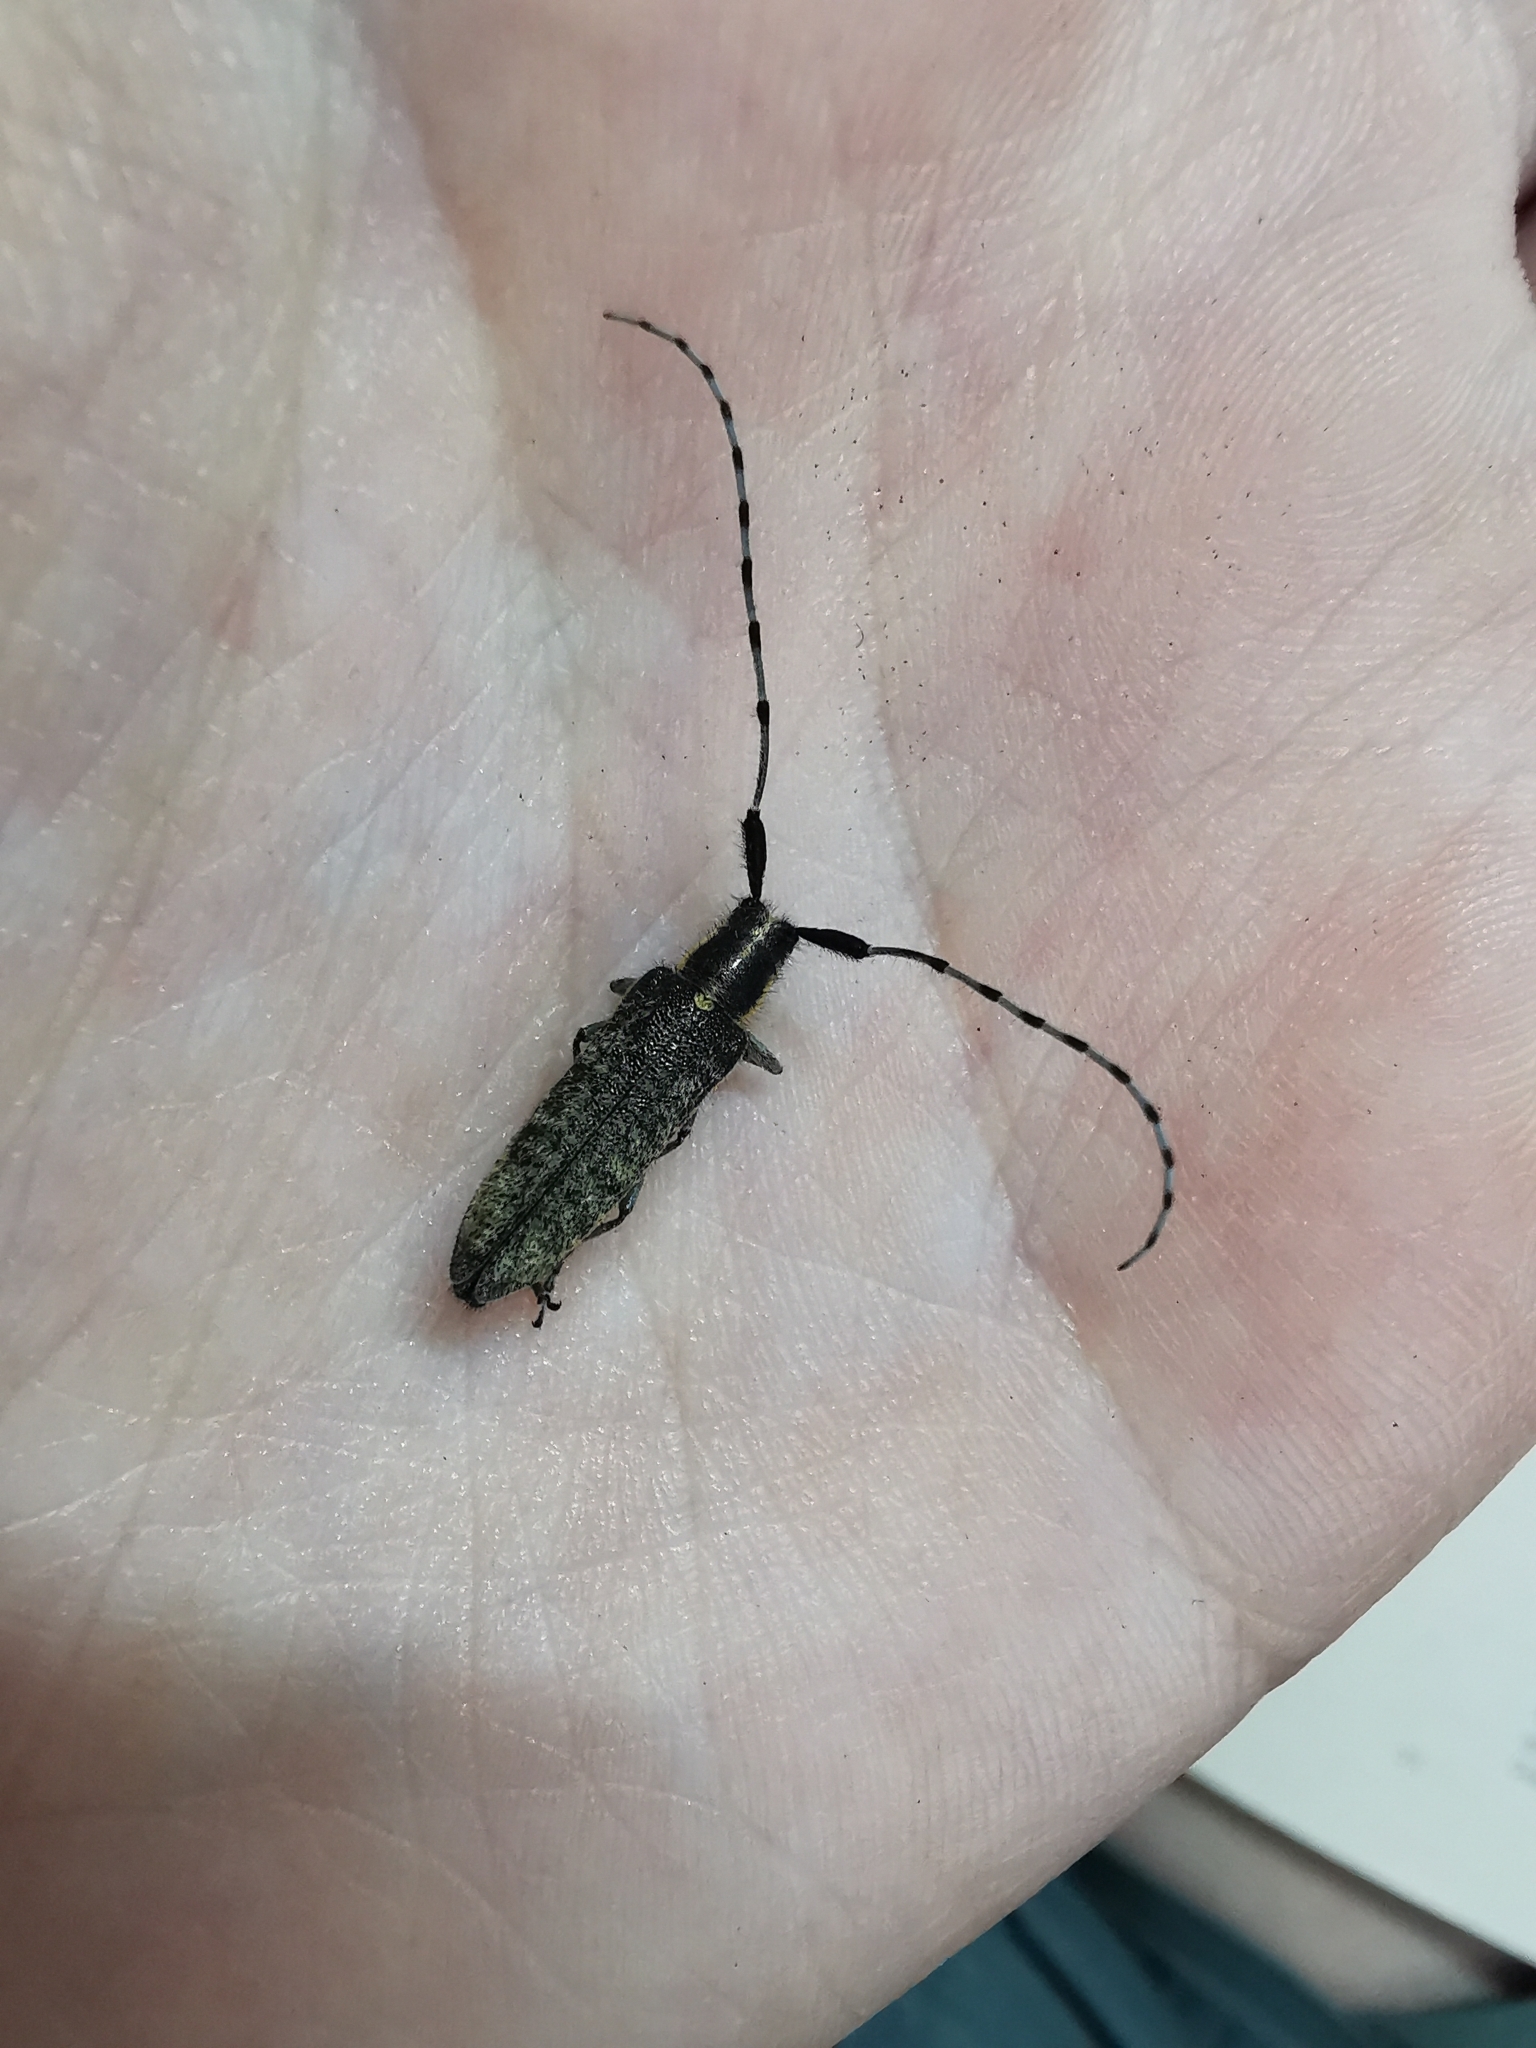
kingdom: Animalia
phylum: Arthropoda
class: Insecta
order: Coleoptera
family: Cerambycidae
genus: Agapanthia
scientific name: Agapanthia villosoviridescens
